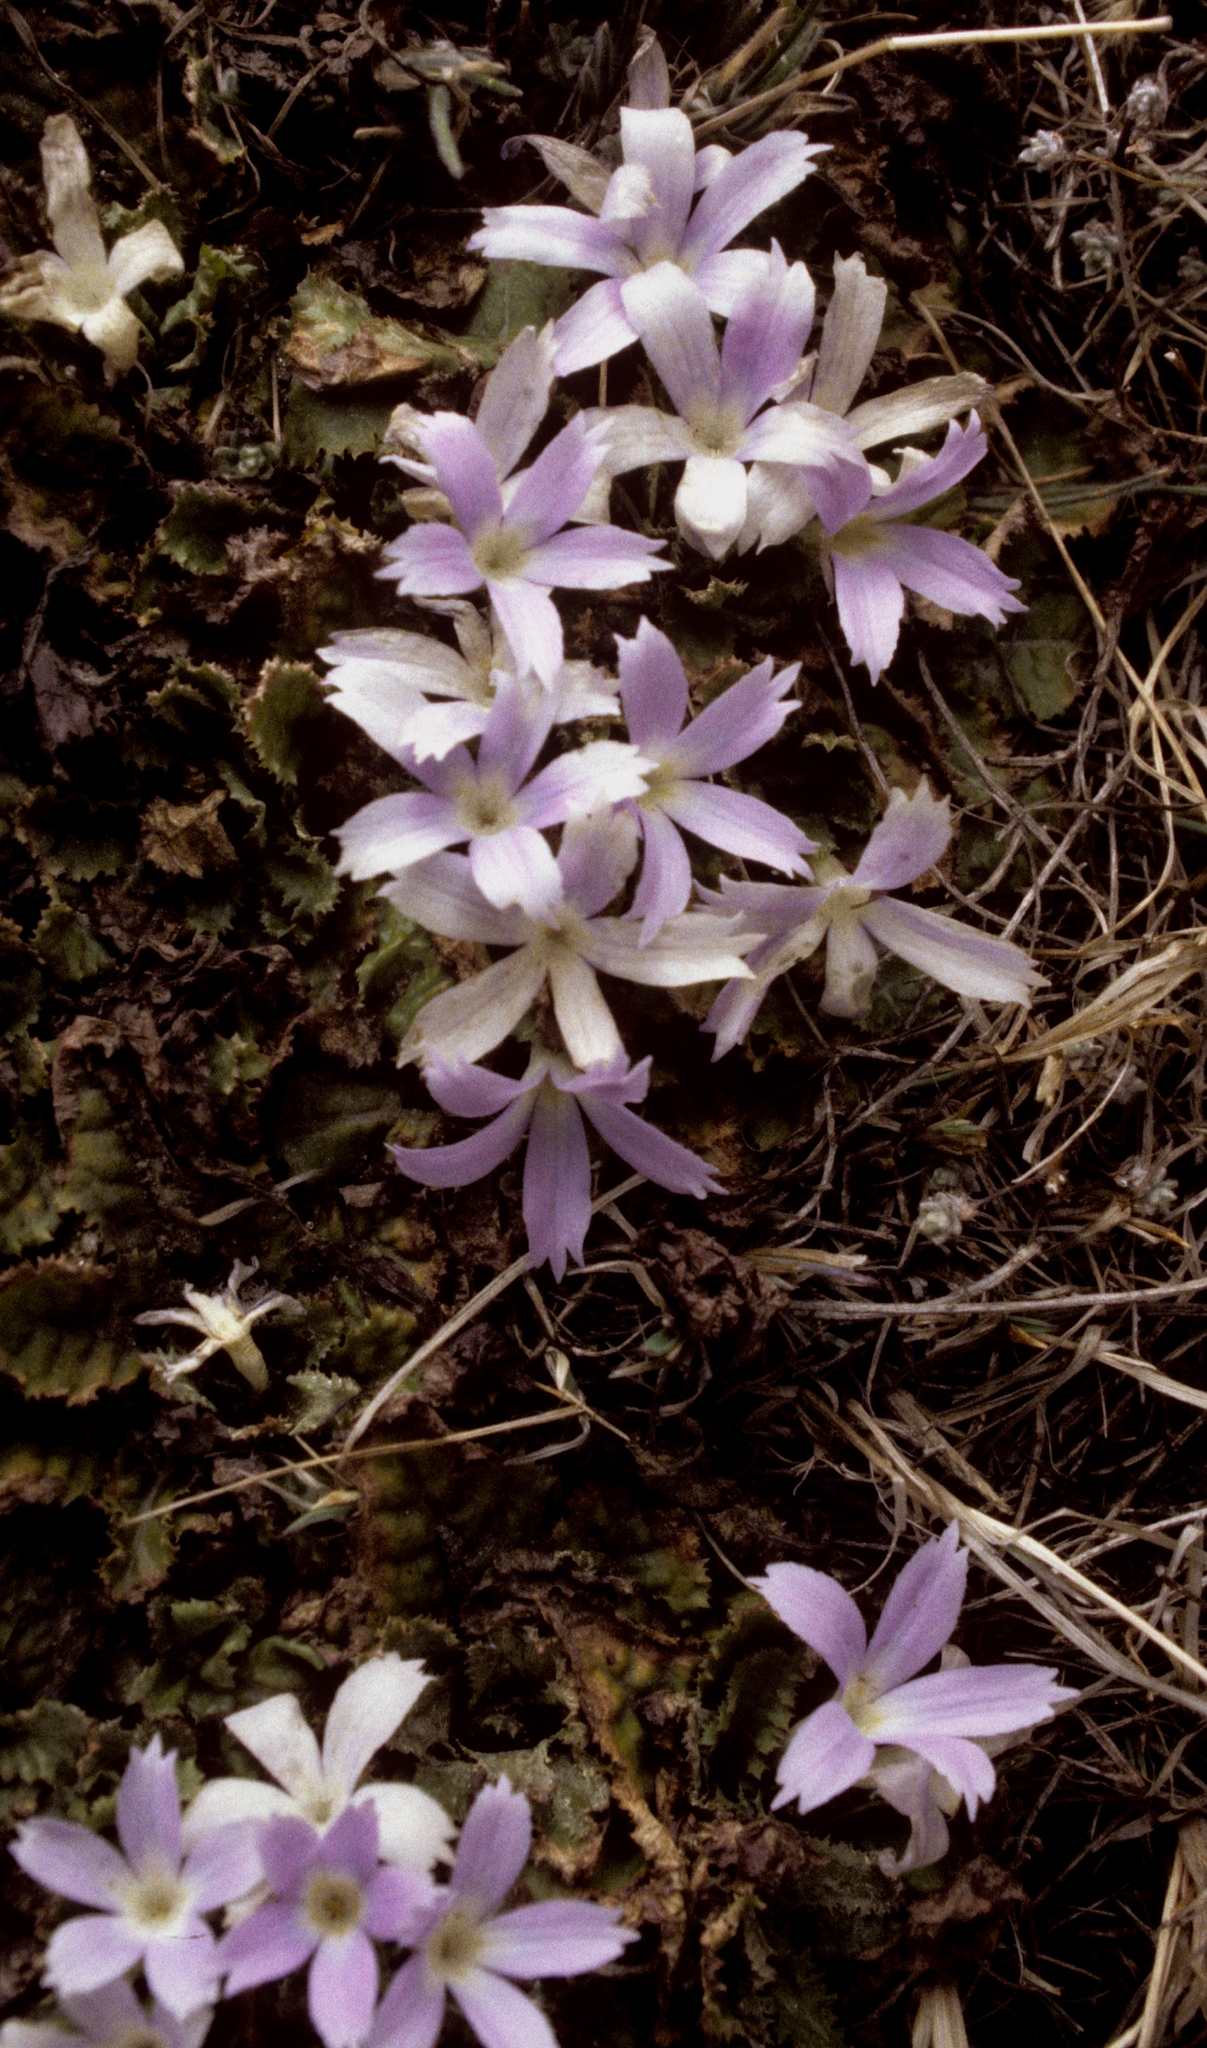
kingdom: Plantae
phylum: Tracheophyta
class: Magnoliopsida
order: Ericales
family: Primulaceae
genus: Primula
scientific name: Primula deuteronana
